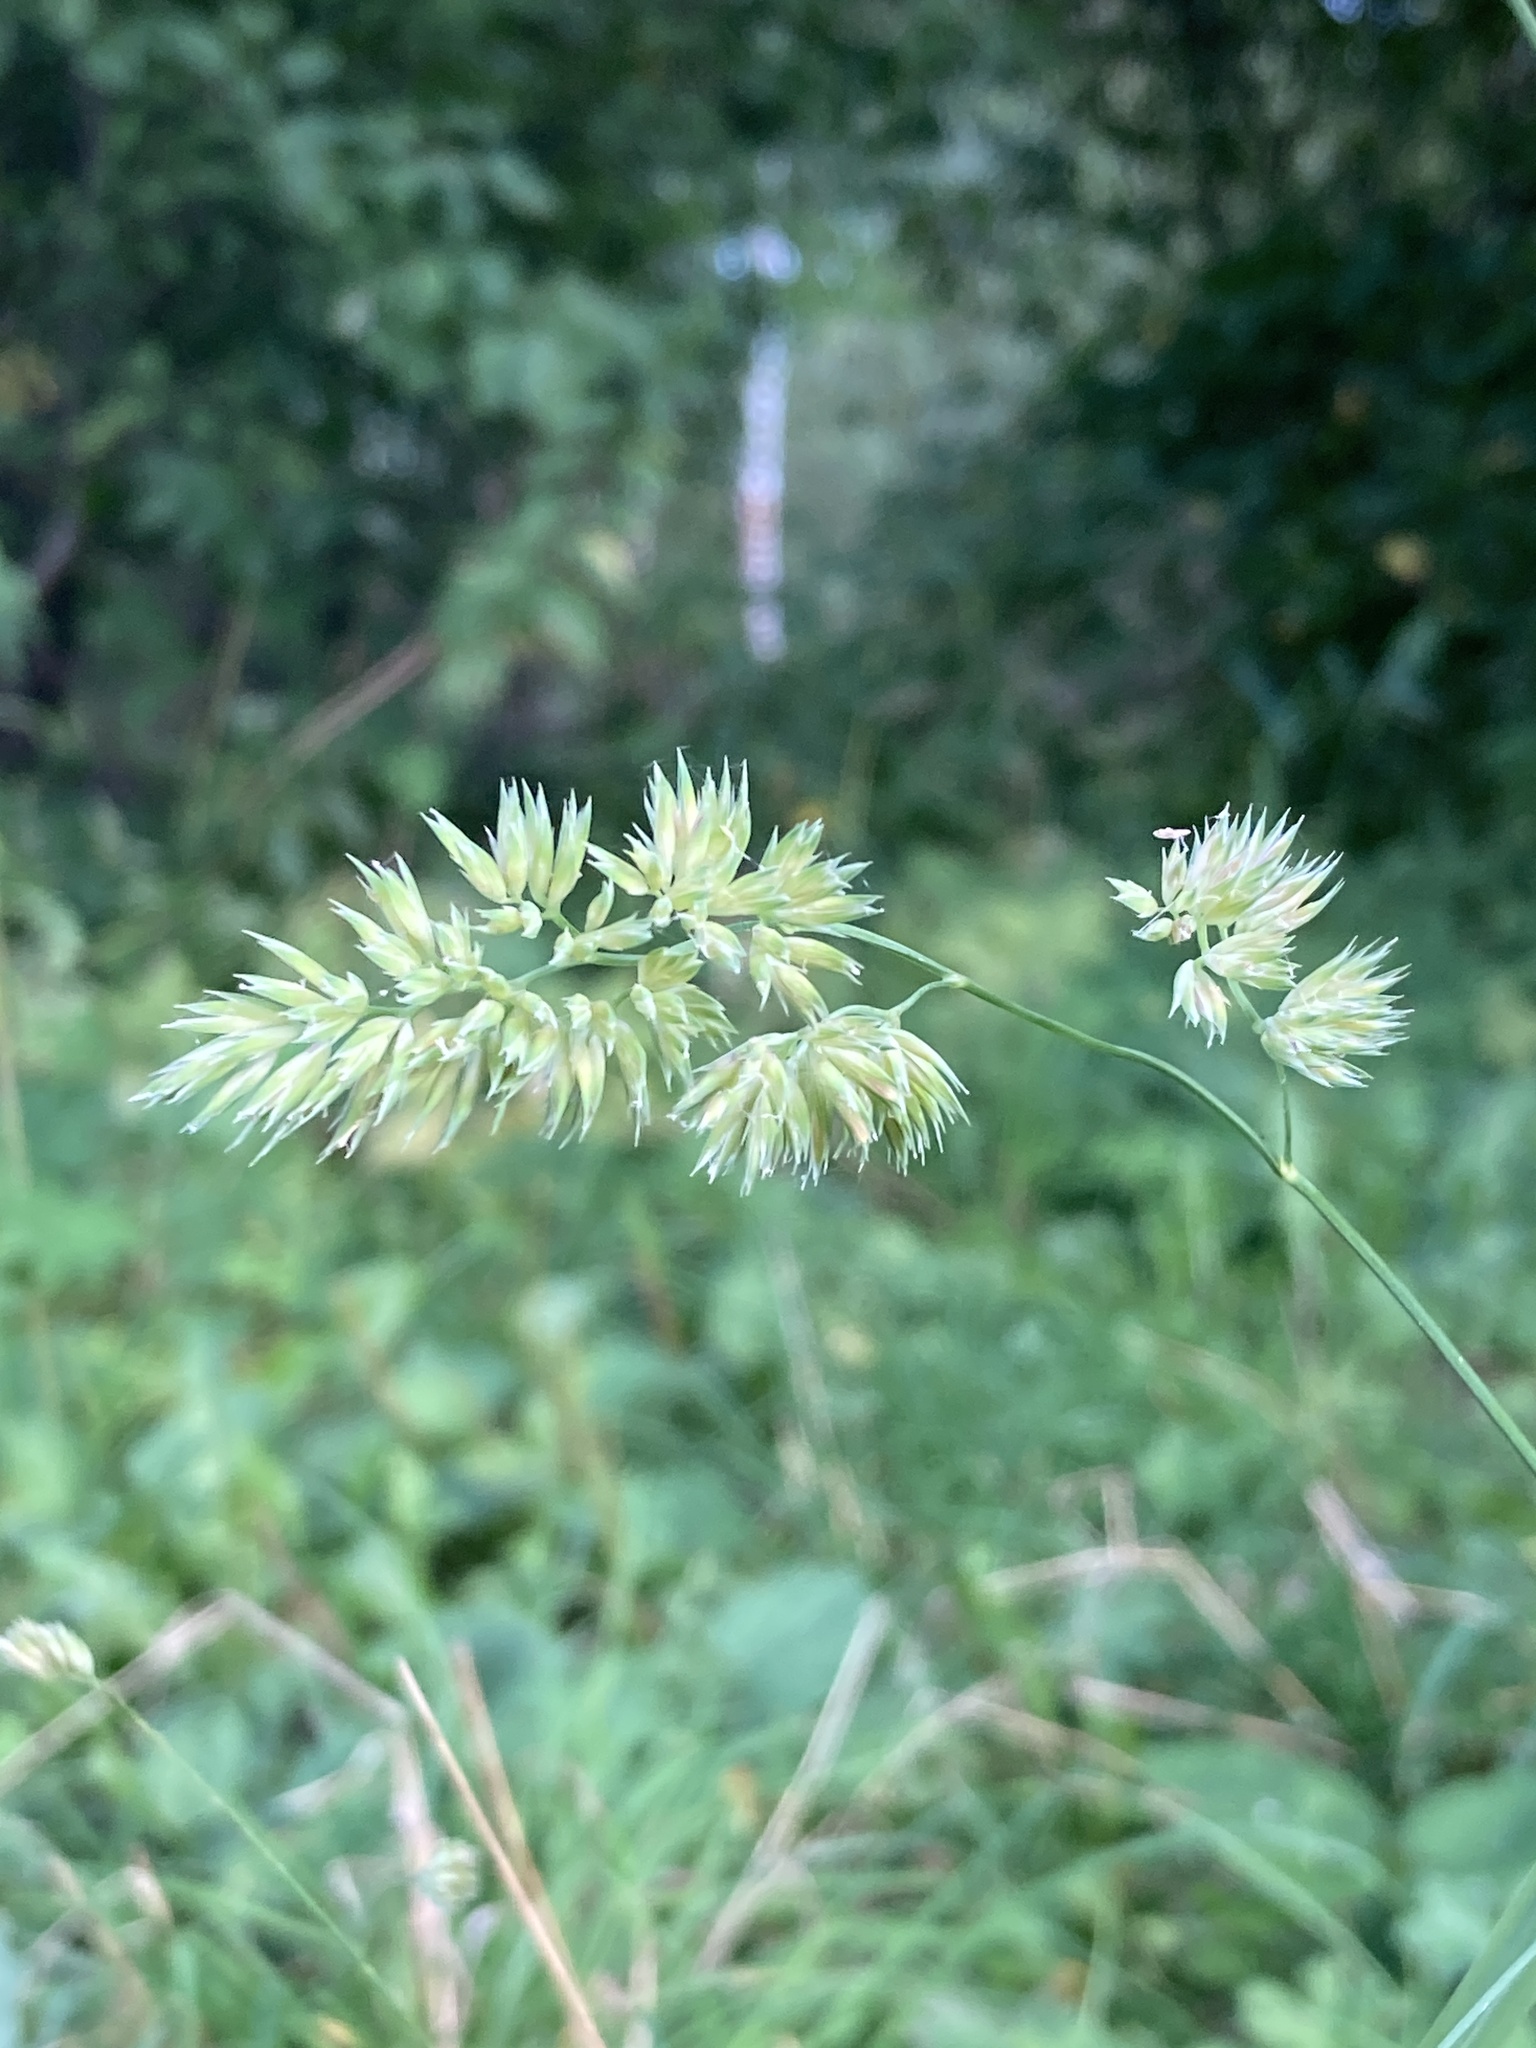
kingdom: Plantae
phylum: Tracheophyta
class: Liliopsida
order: Poales
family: Poaceae
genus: Dactylis
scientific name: Dactylis glomerata
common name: Orchardgrass
